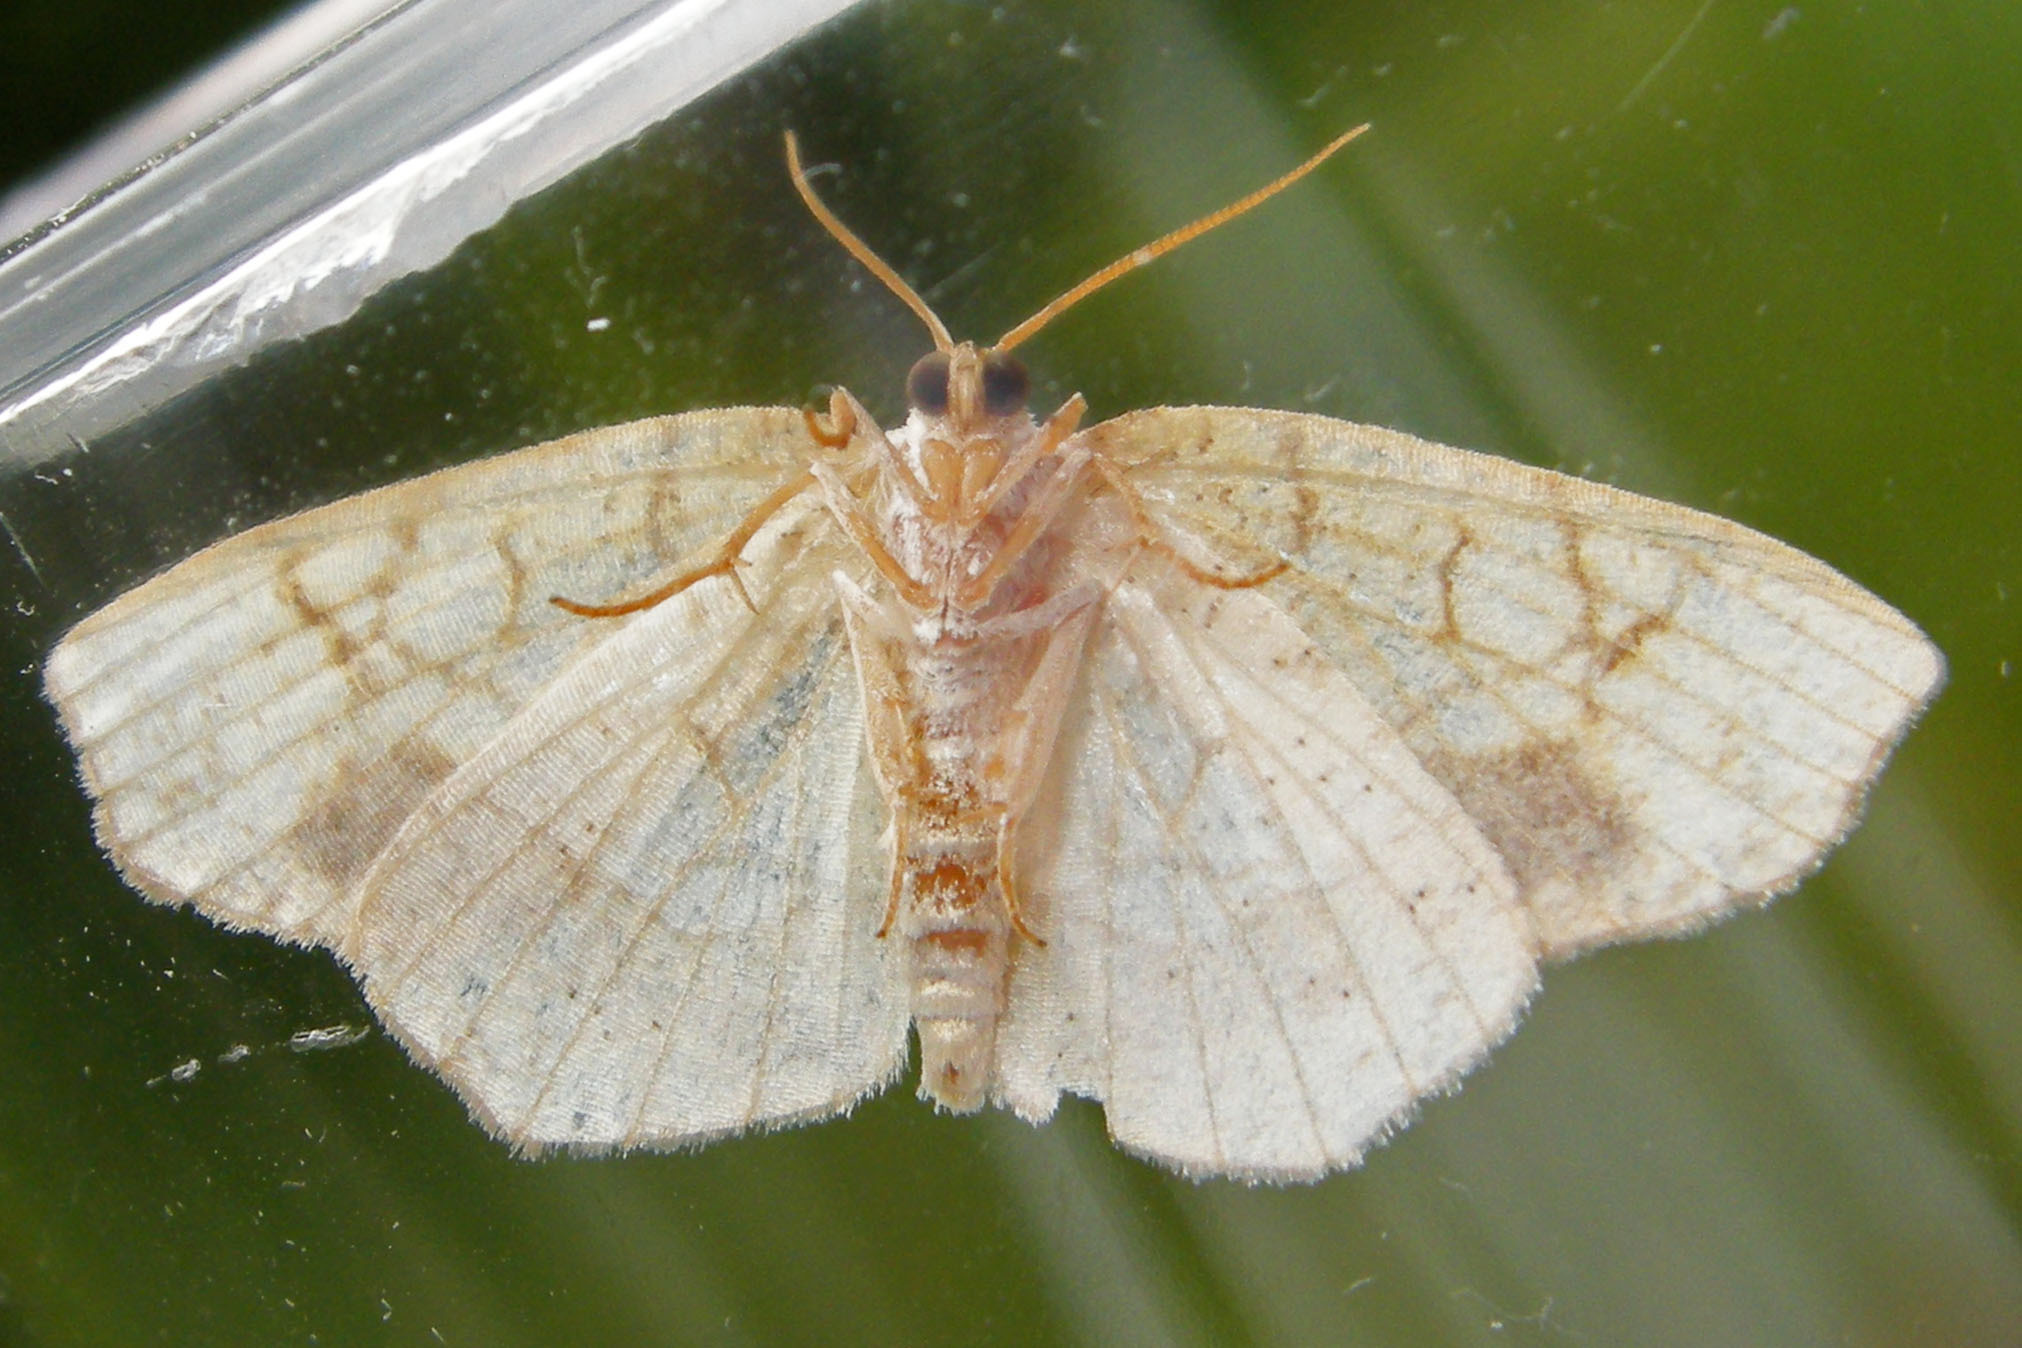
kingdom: Animalia
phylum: Arthropoda
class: Insecta
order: Lepidoptera
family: Geometridae
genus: Nematocampa
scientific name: Nematocampa resistaria
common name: Horned spanworm moth
